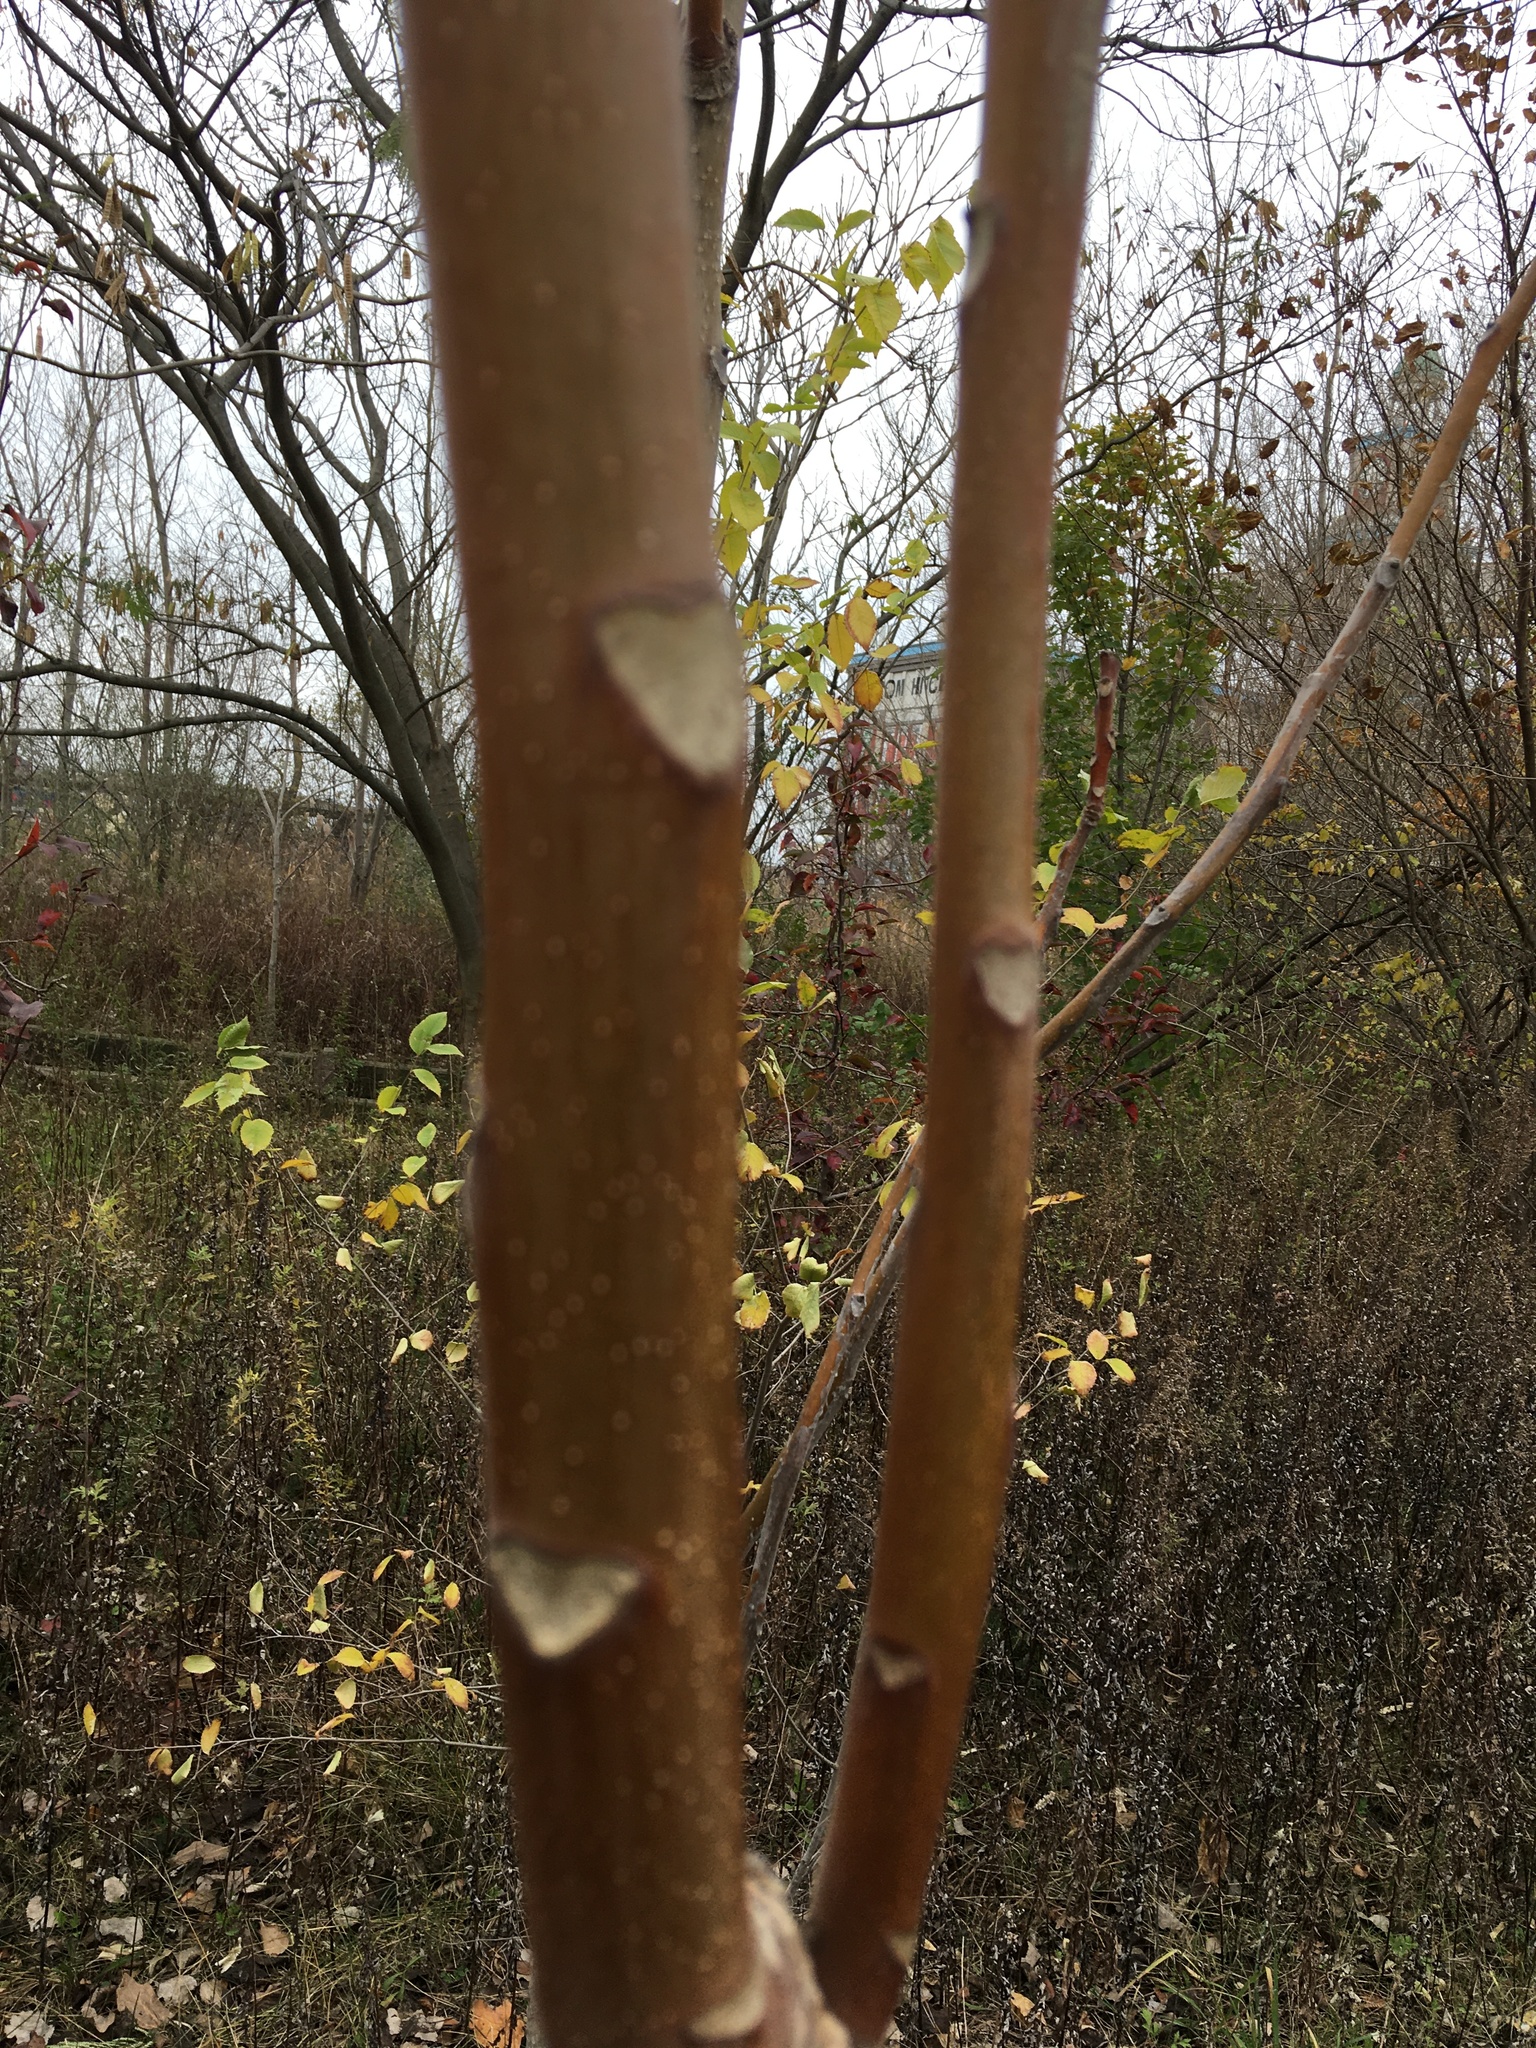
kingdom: Plantae
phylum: Tracheophyta
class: Magnoliopsida
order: Sapindales
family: Simaroubaceae
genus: Ailanthus
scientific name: Ailanthus altissima
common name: Tree-of-heaven
